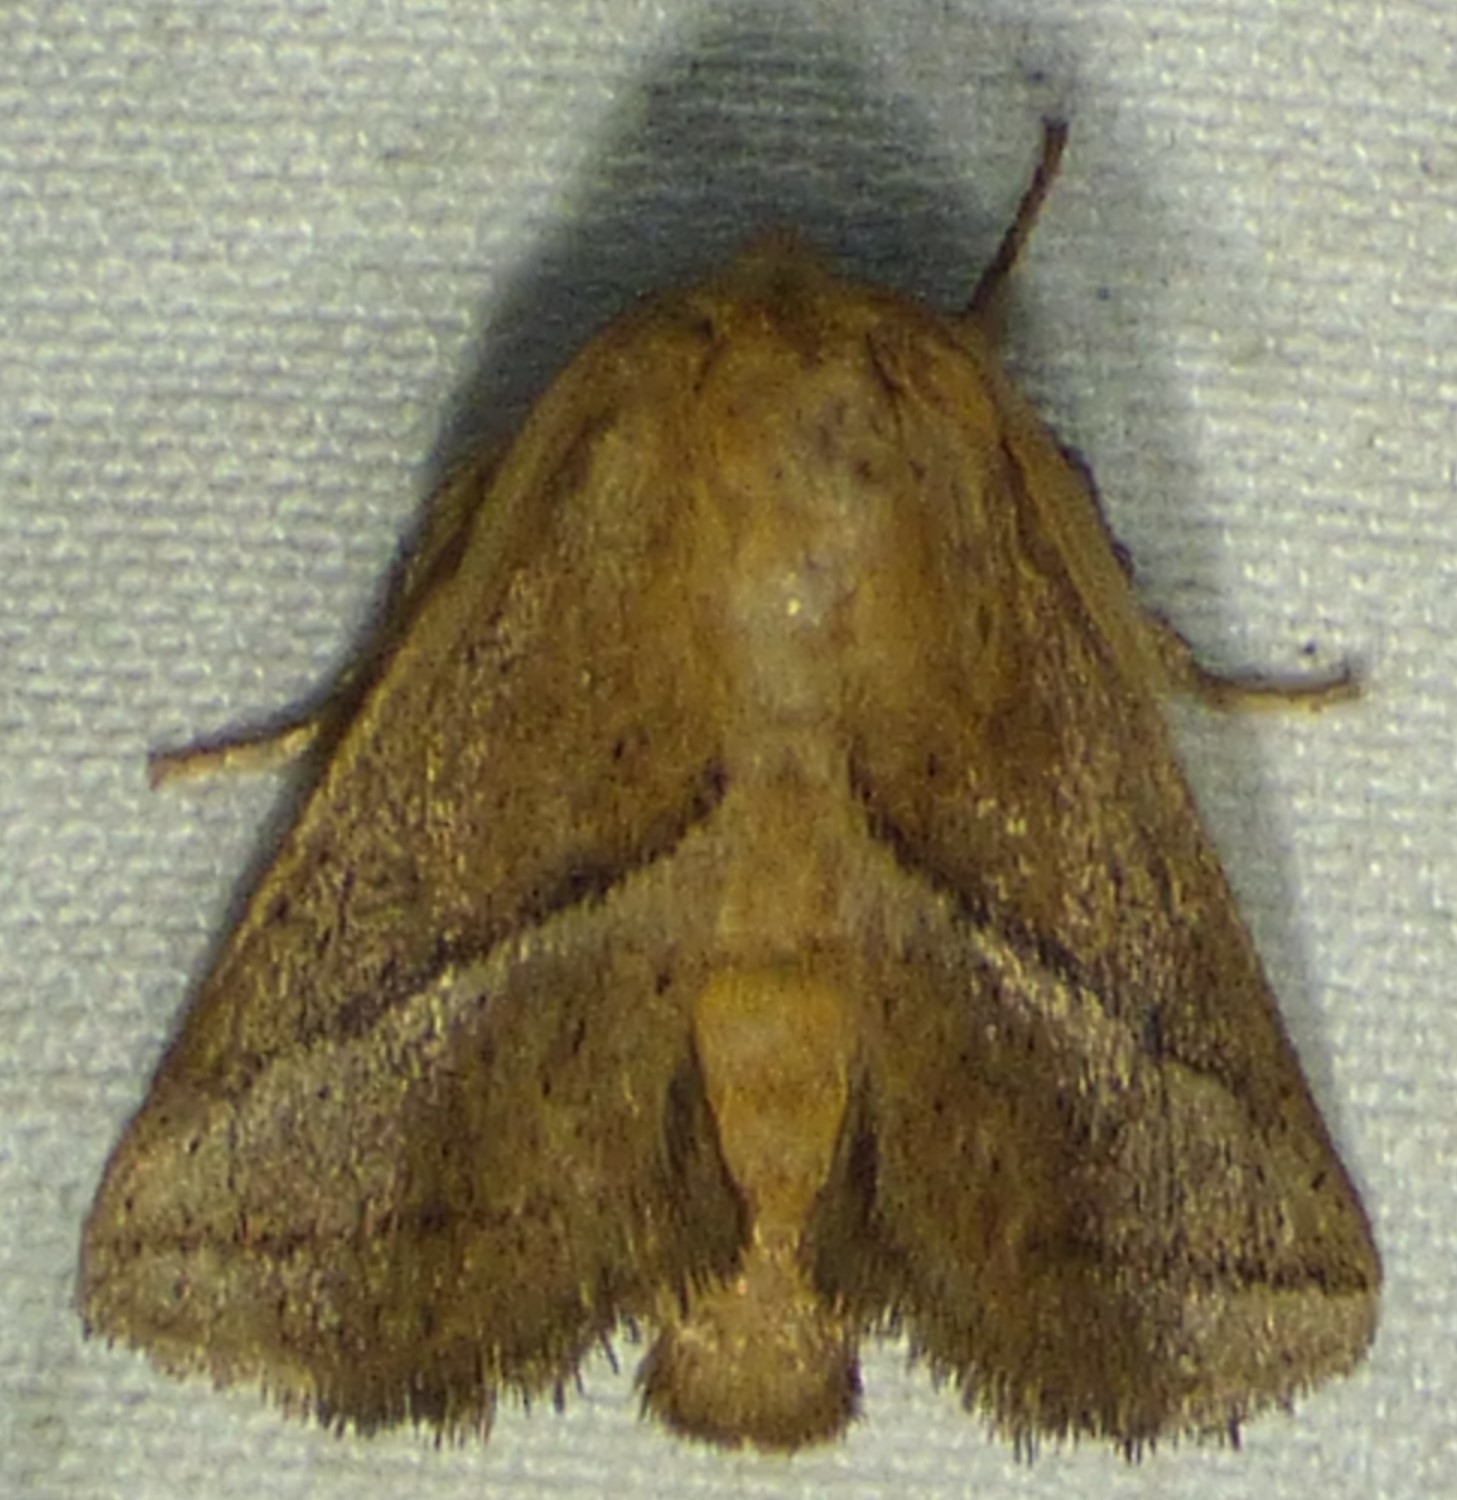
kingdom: Animalia
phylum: Arthropoda
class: Insecta
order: Lepidoptera
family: Limacodidae
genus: Natada
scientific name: Natada nasoni
